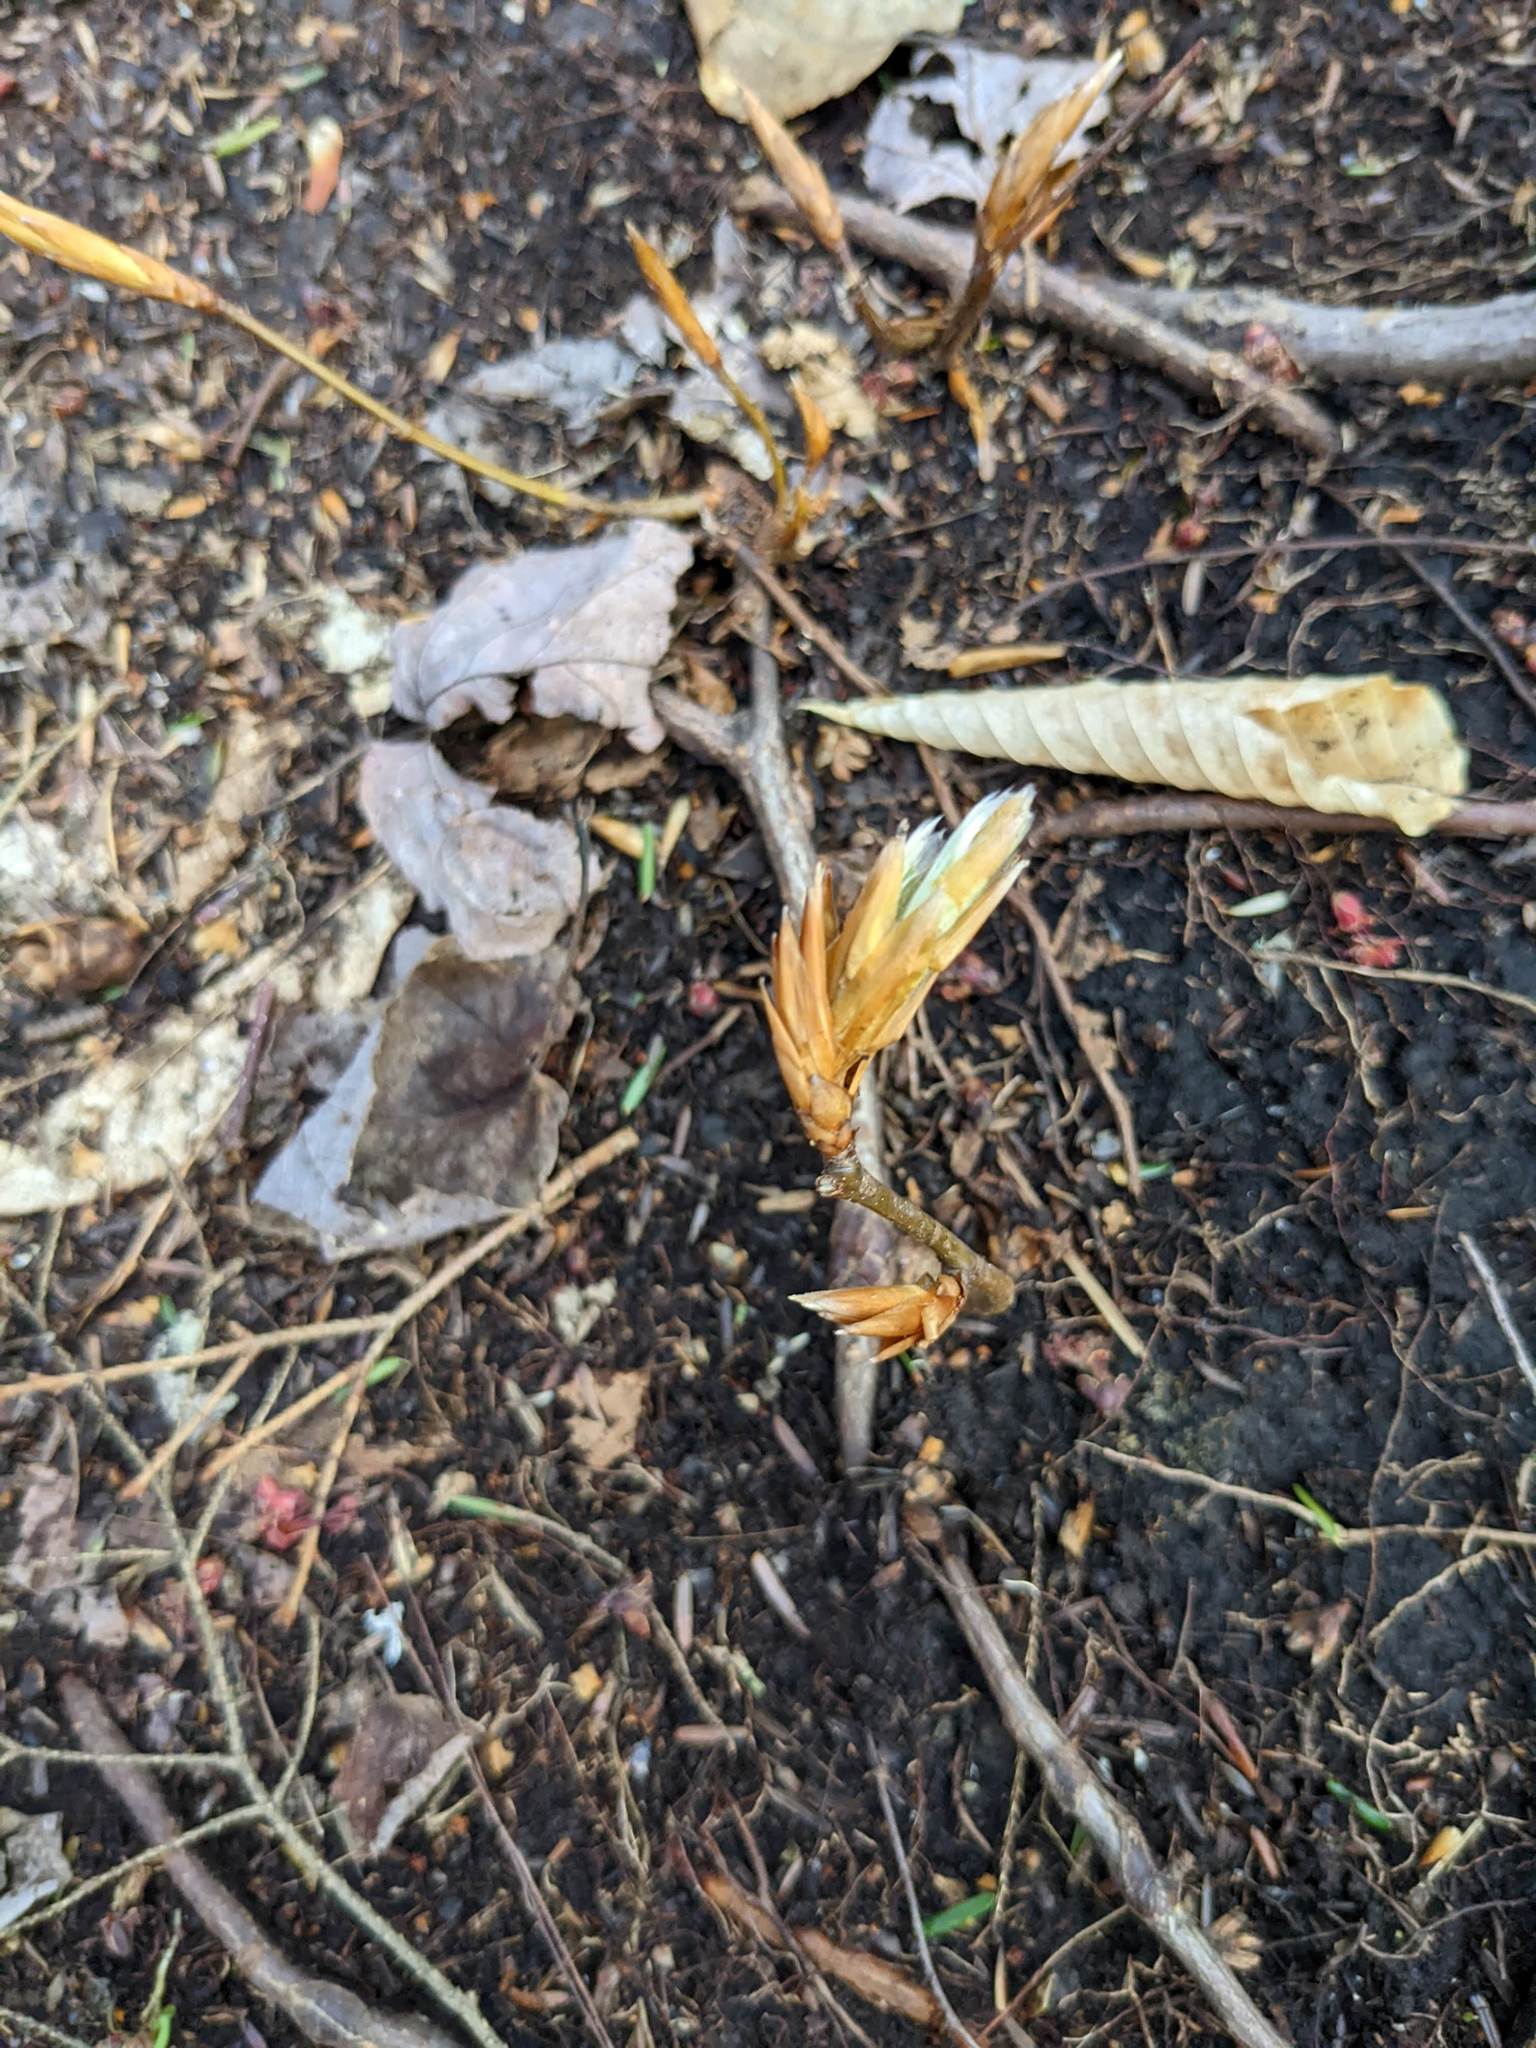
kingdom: Plantae
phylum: Tracheophyta
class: Magnoliopsida
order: Fagales
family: Fagaceae
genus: Fagus
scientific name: Fagus grandifolia
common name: American beech
